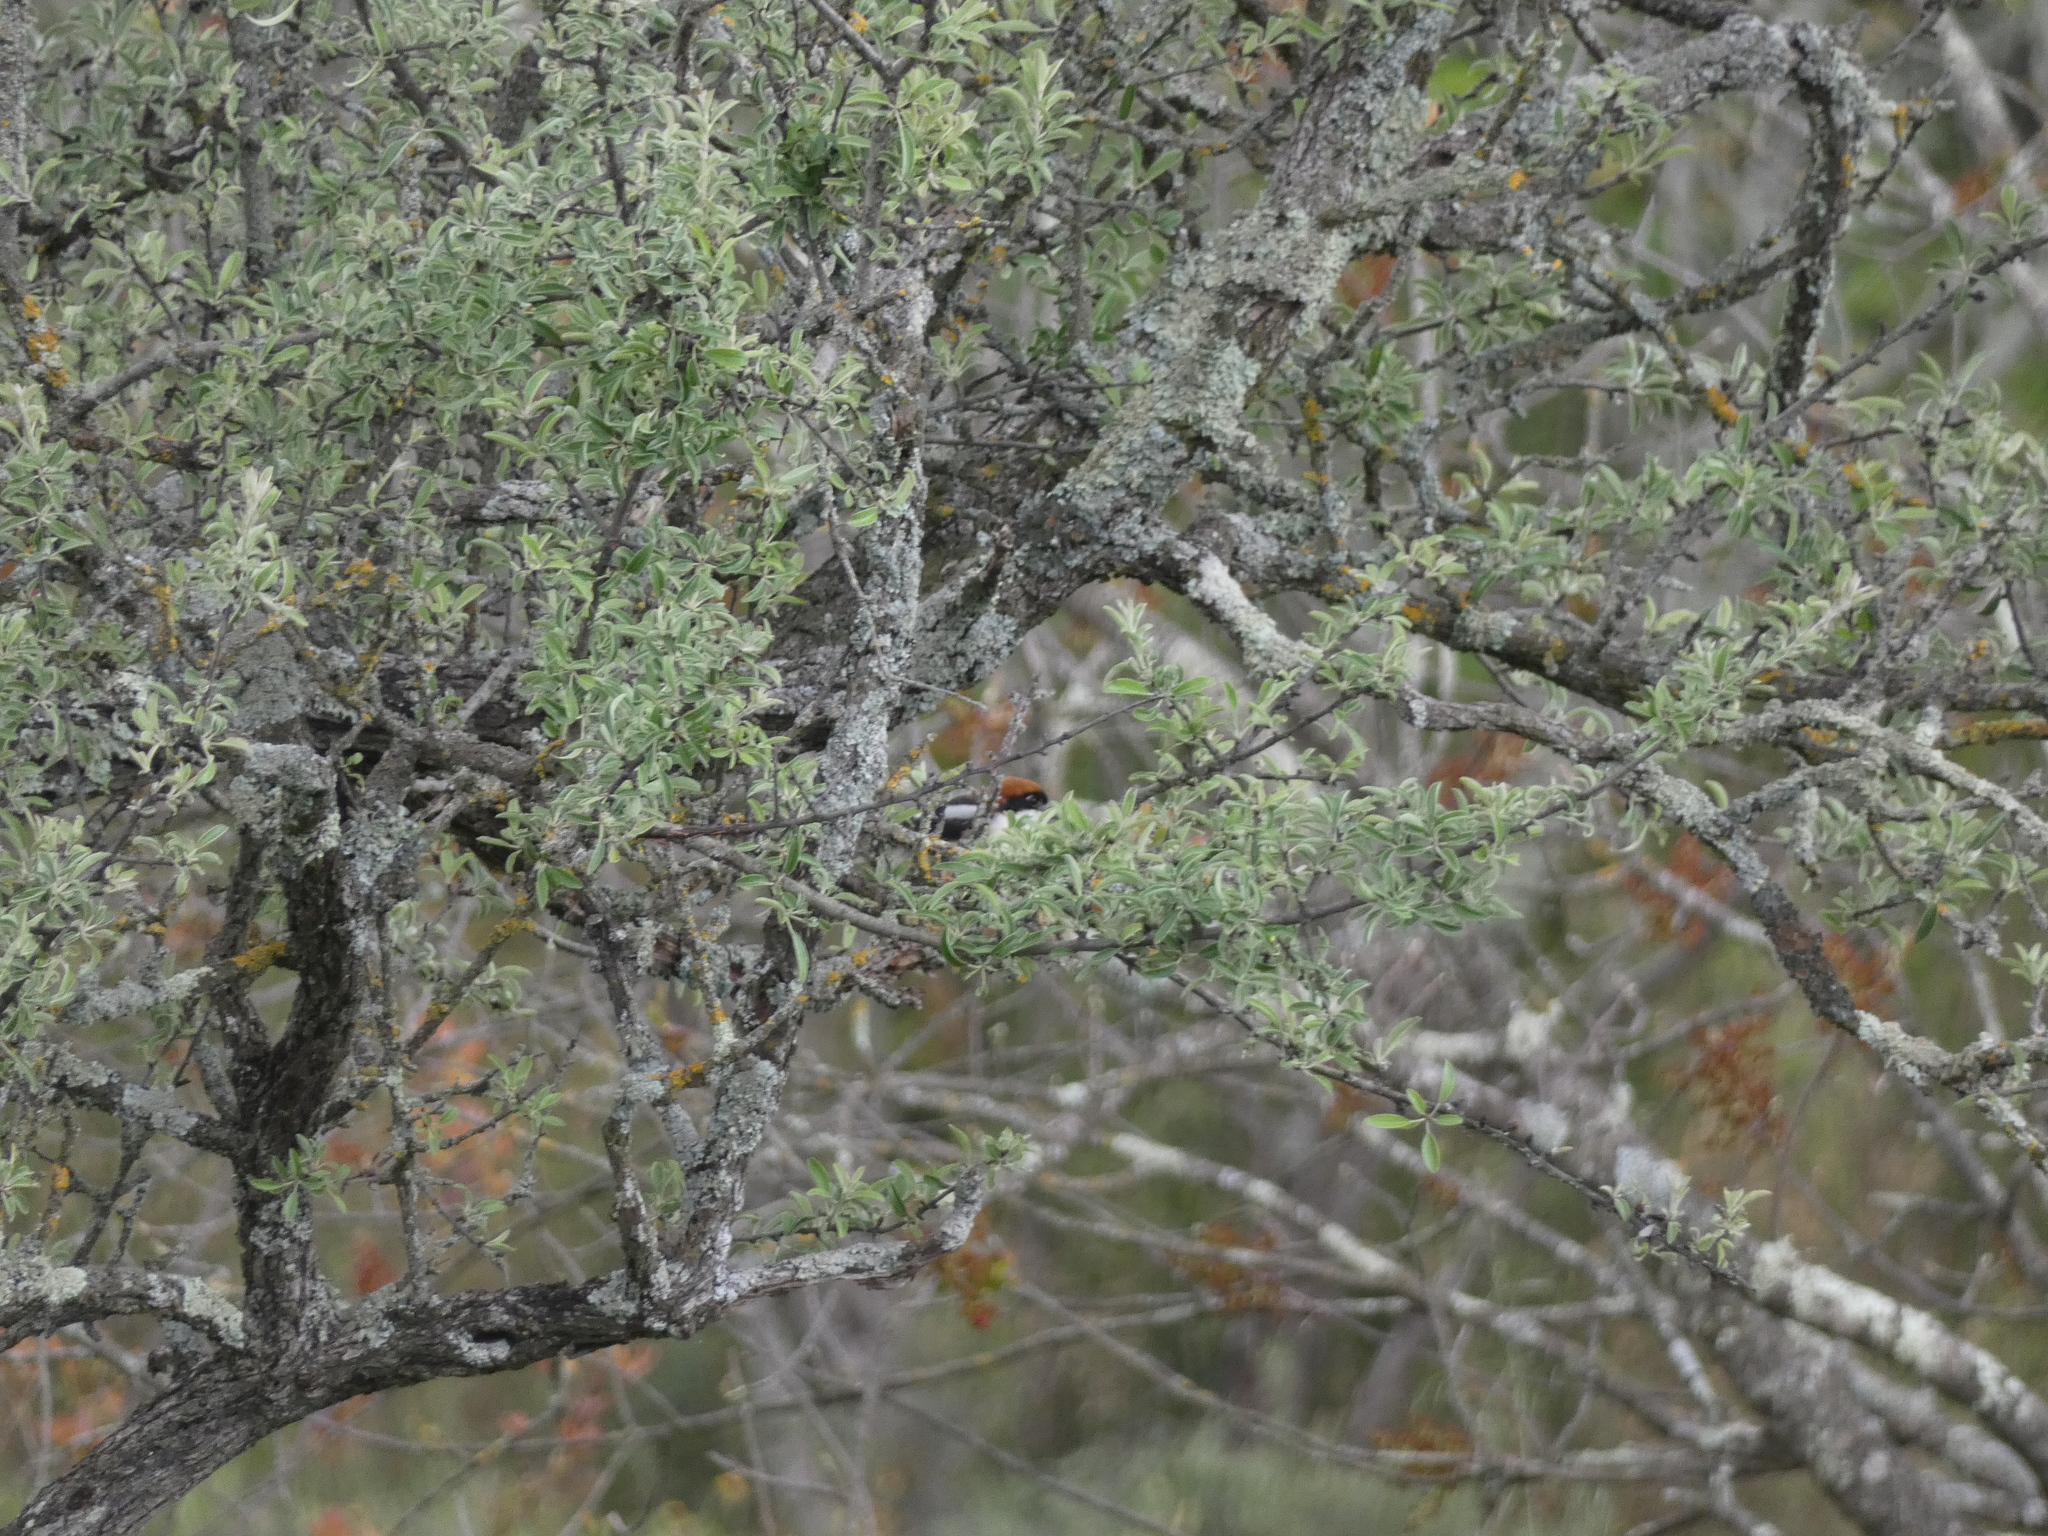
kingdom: Animalia
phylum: Chordata
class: Aves
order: Passeriformes
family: Laniidae
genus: Lanius
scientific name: Lanius senator
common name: Woodchat shrike
